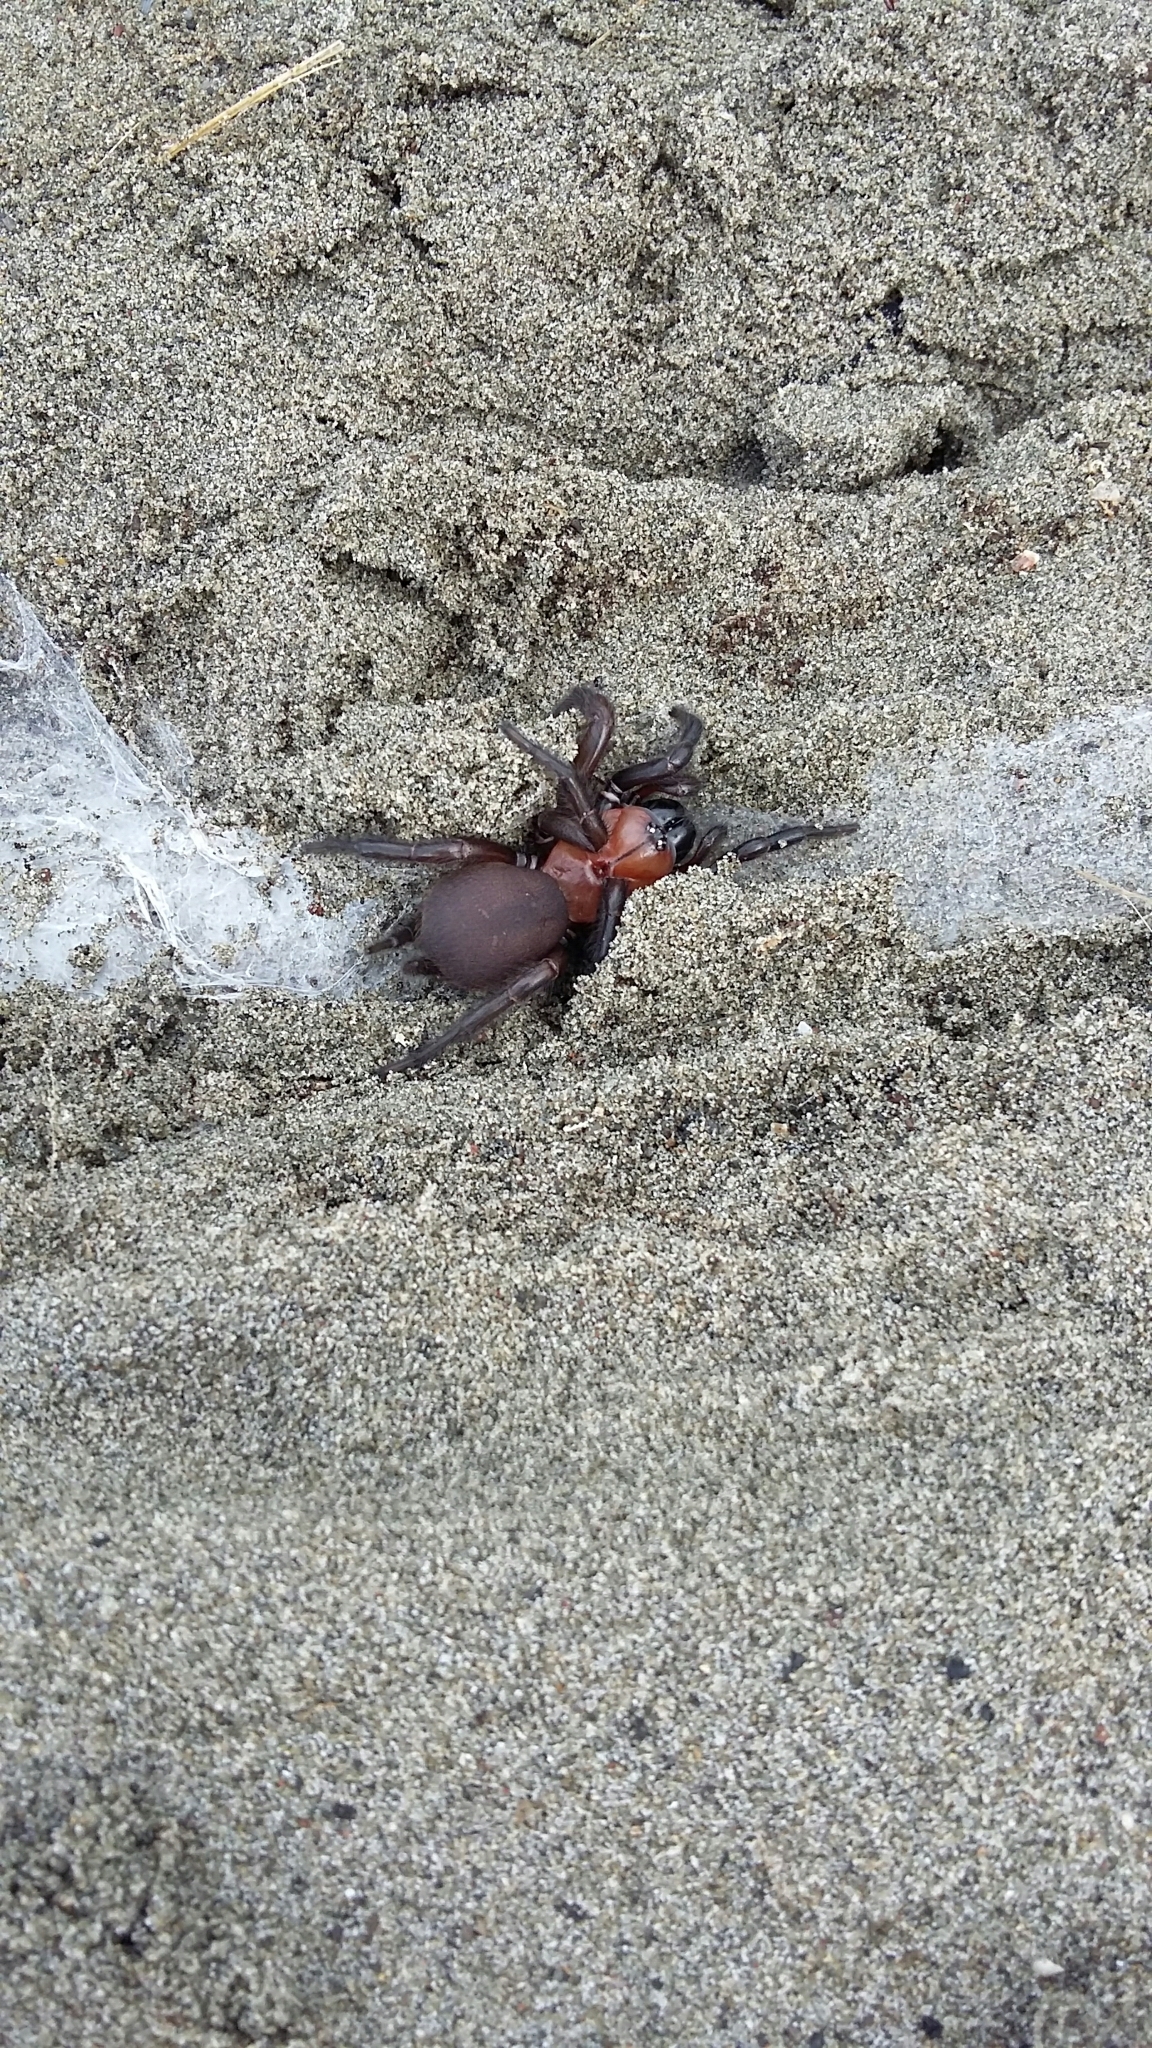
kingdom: Animalia
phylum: Arthropoda
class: Arachnida
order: Araneae
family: Porrhothelidae
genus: Porrhothele
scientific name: Porrhothele antipodiana
